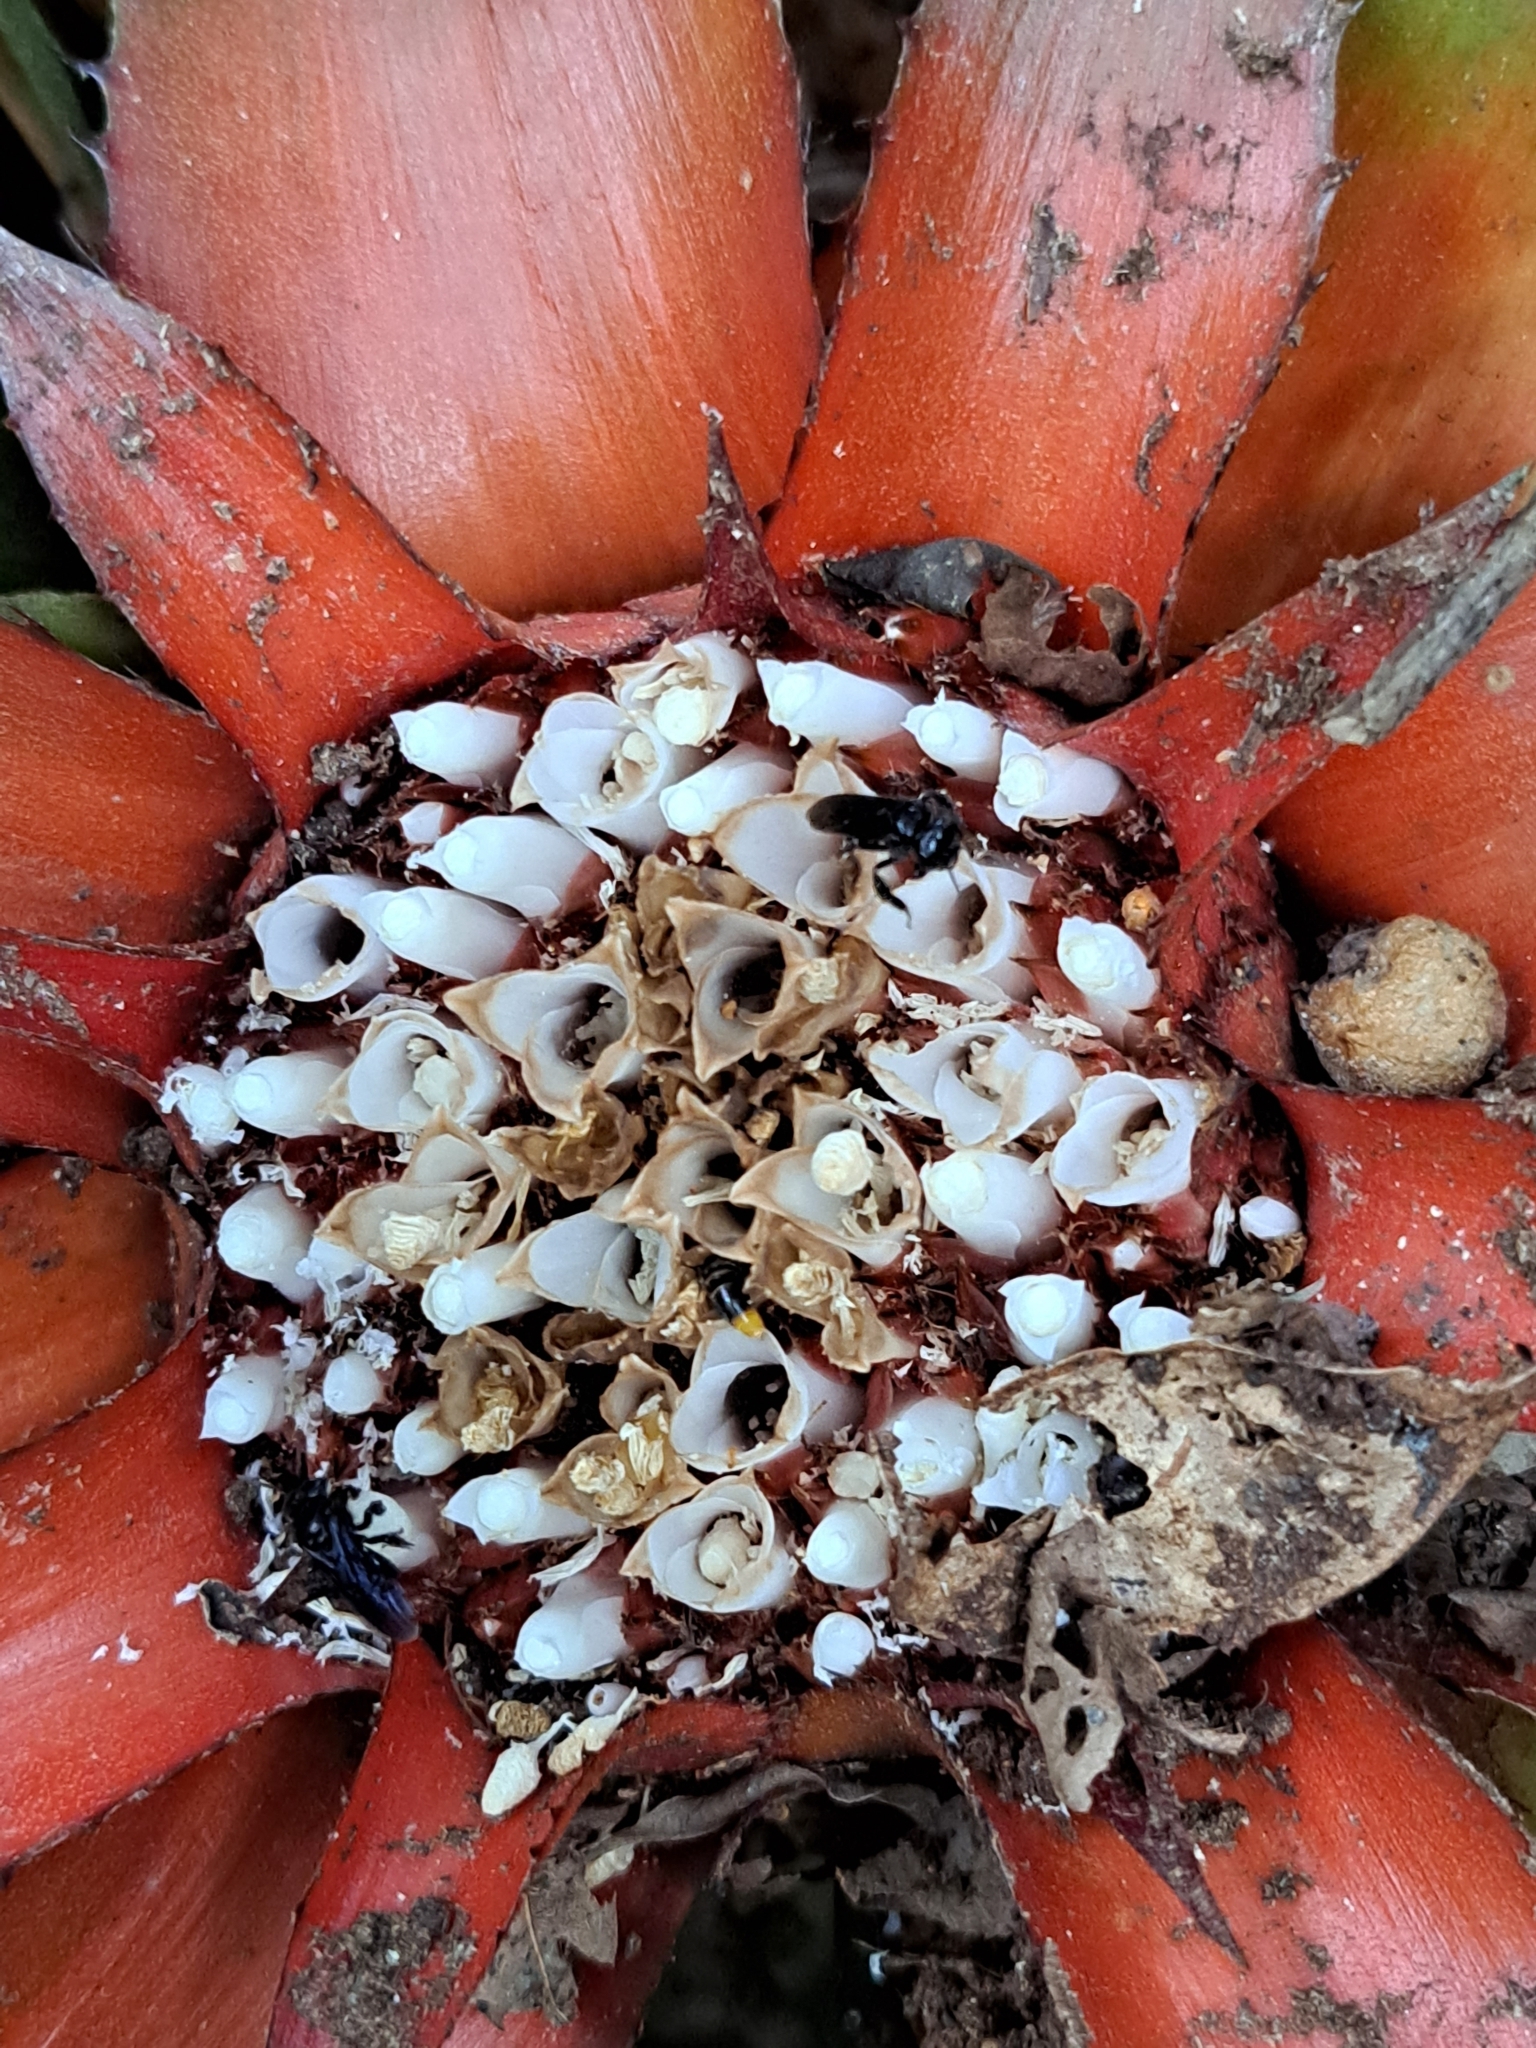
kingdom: Plantae
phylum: Tracheophyta
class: Liliopsida
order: Poales
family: Bromeliaceae
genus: Wittrockia
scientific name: Wittrockia gigantea
